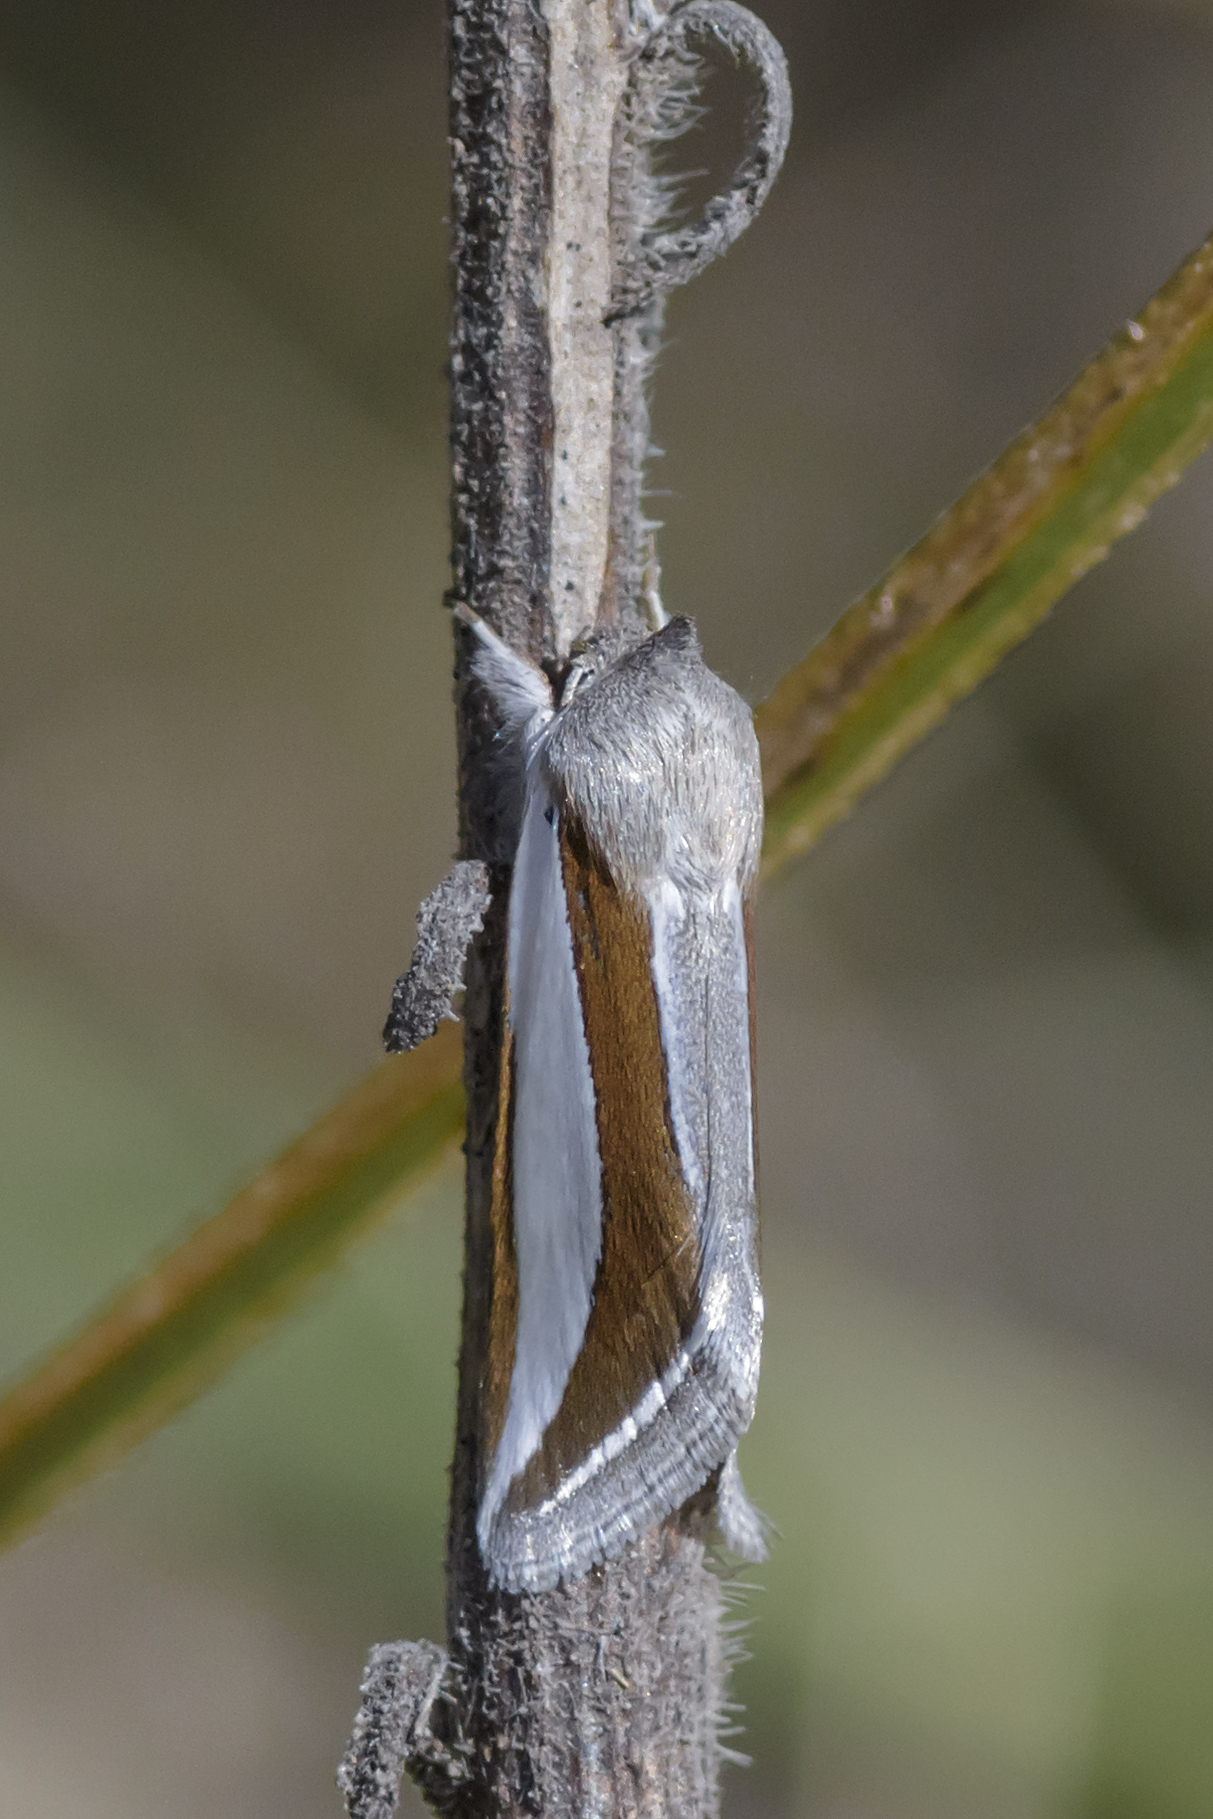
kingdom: Animalia
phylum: Arthropoda
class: Insecta
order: Lepidoptera
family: Noctuidae
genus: Cucullia
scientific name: Cucullia argyrina
